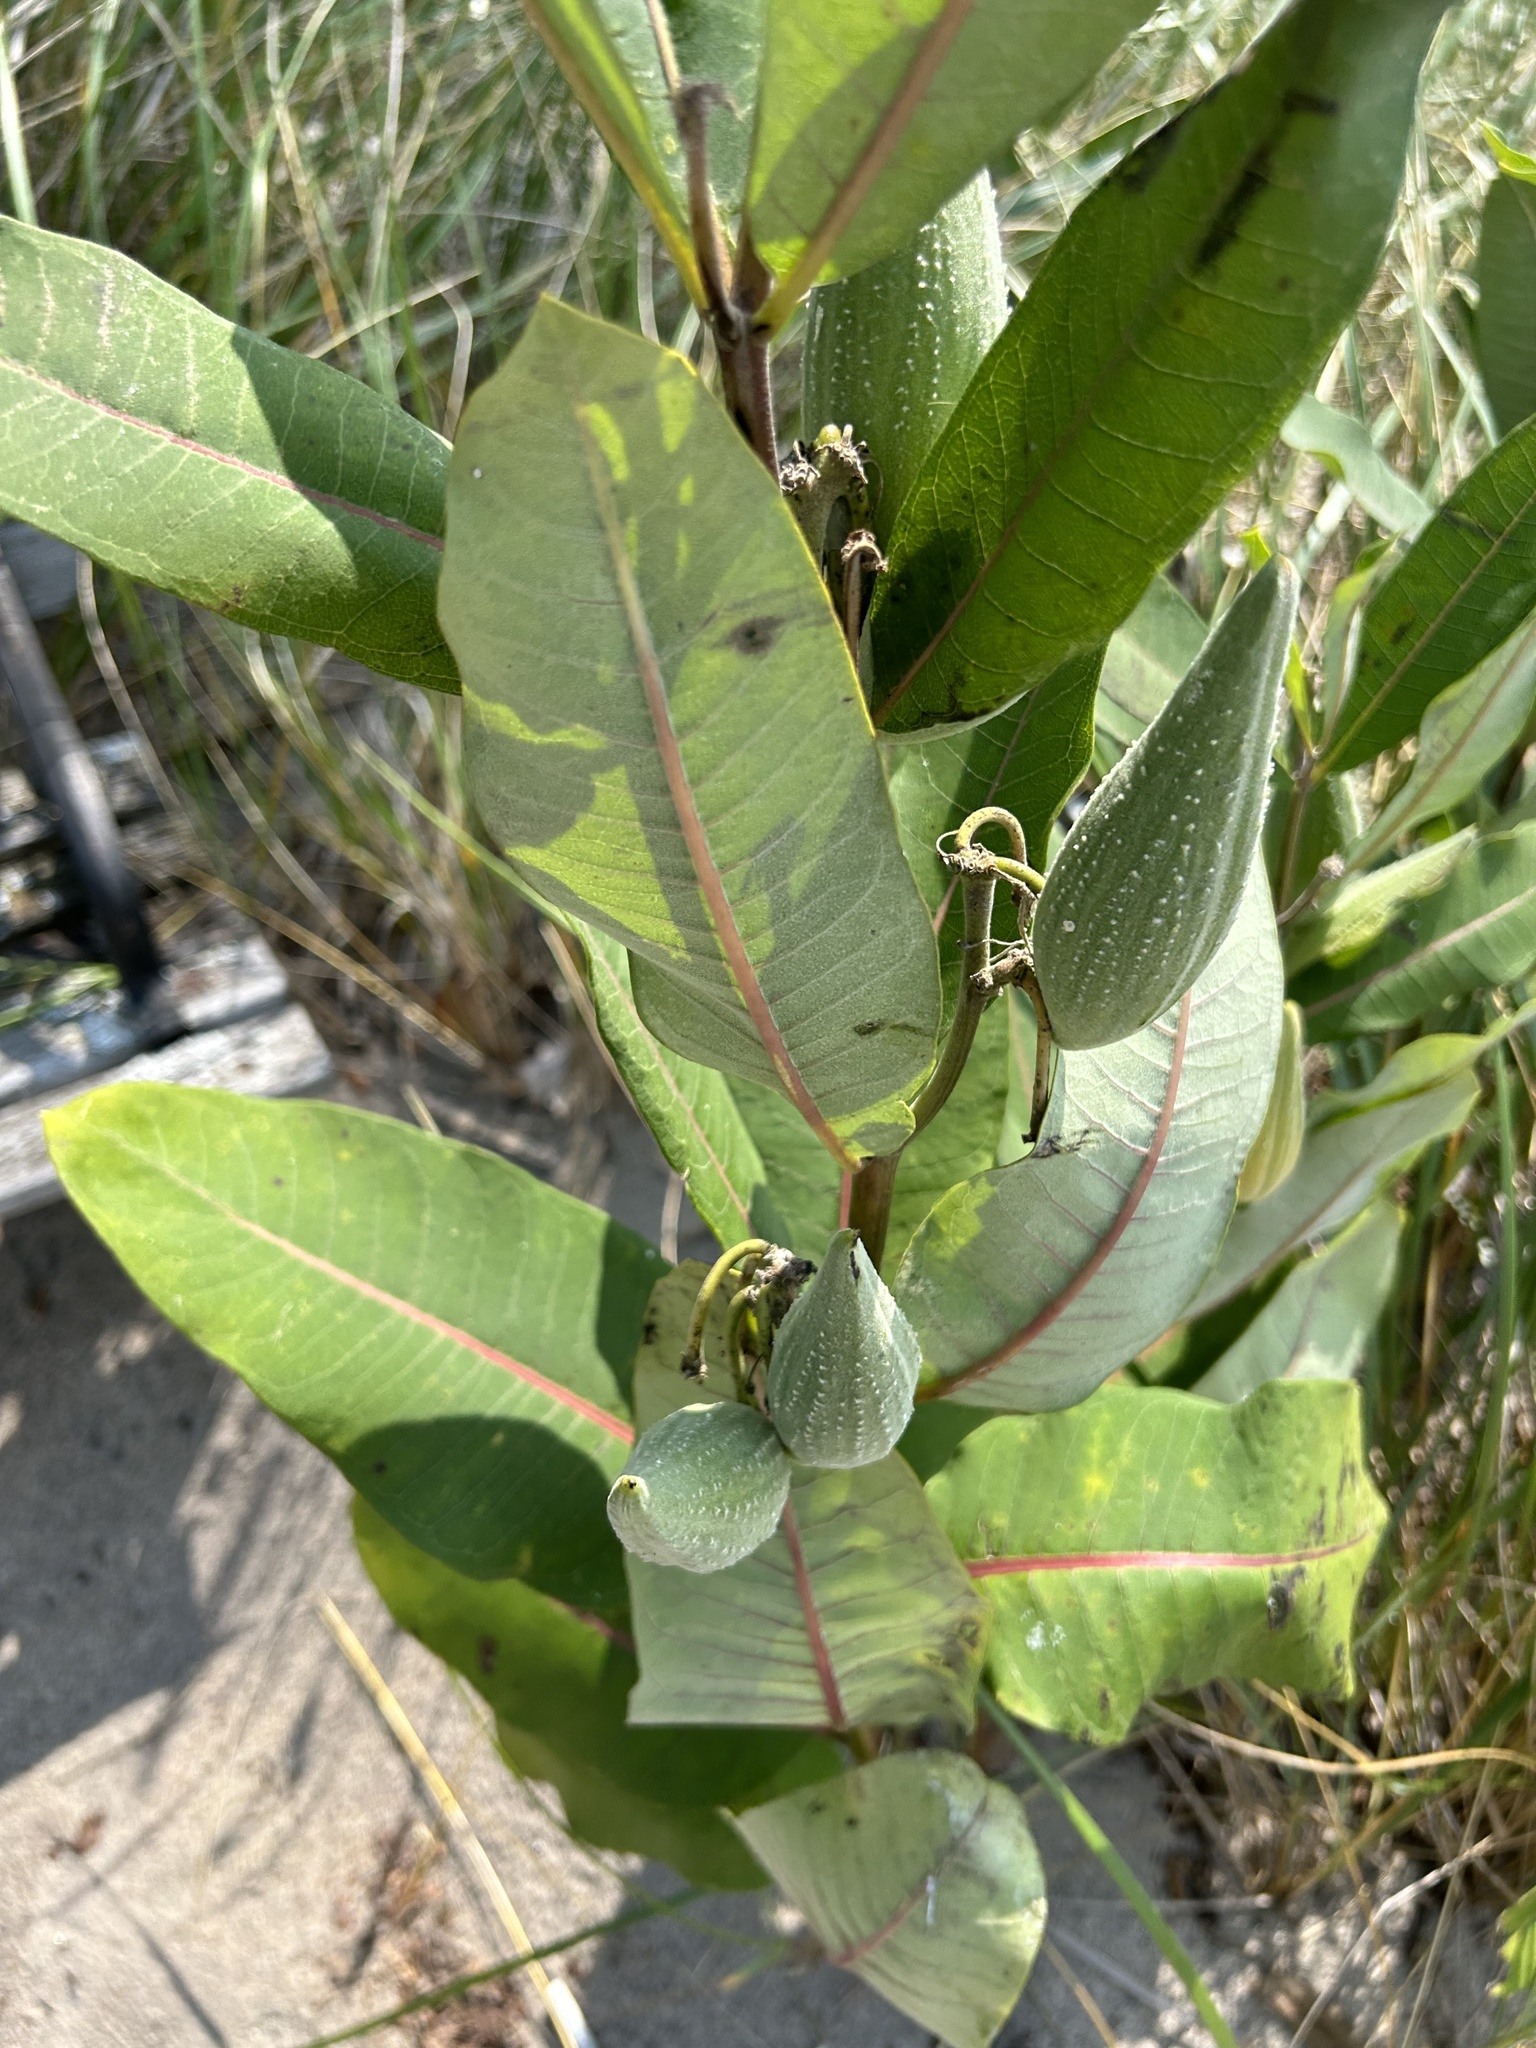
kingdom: Plantae
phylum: Tracheophyta
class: Magnoliopsida
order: Gentianales
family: Apocynaceae
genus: Asclepias
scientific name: Asclepias syriaca
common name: Common milkweed
